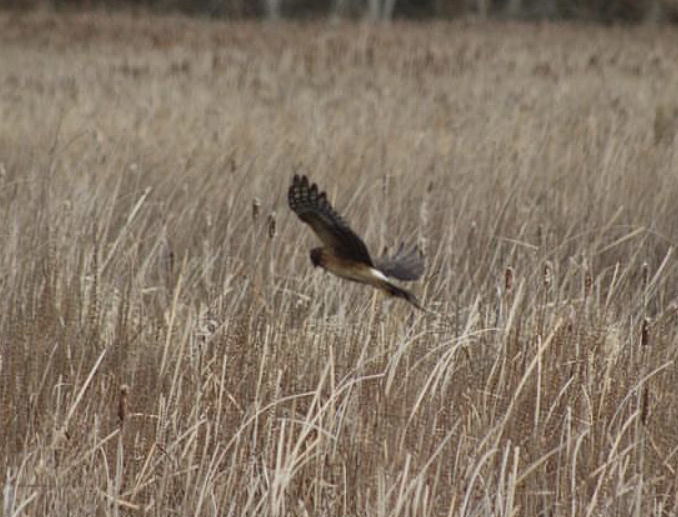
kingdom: Animalia
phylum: Chordata
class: Aves
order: Accipitriformes
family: Accipitridae
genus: Circus
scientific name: Circus cyaneus
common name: Hen harrier
